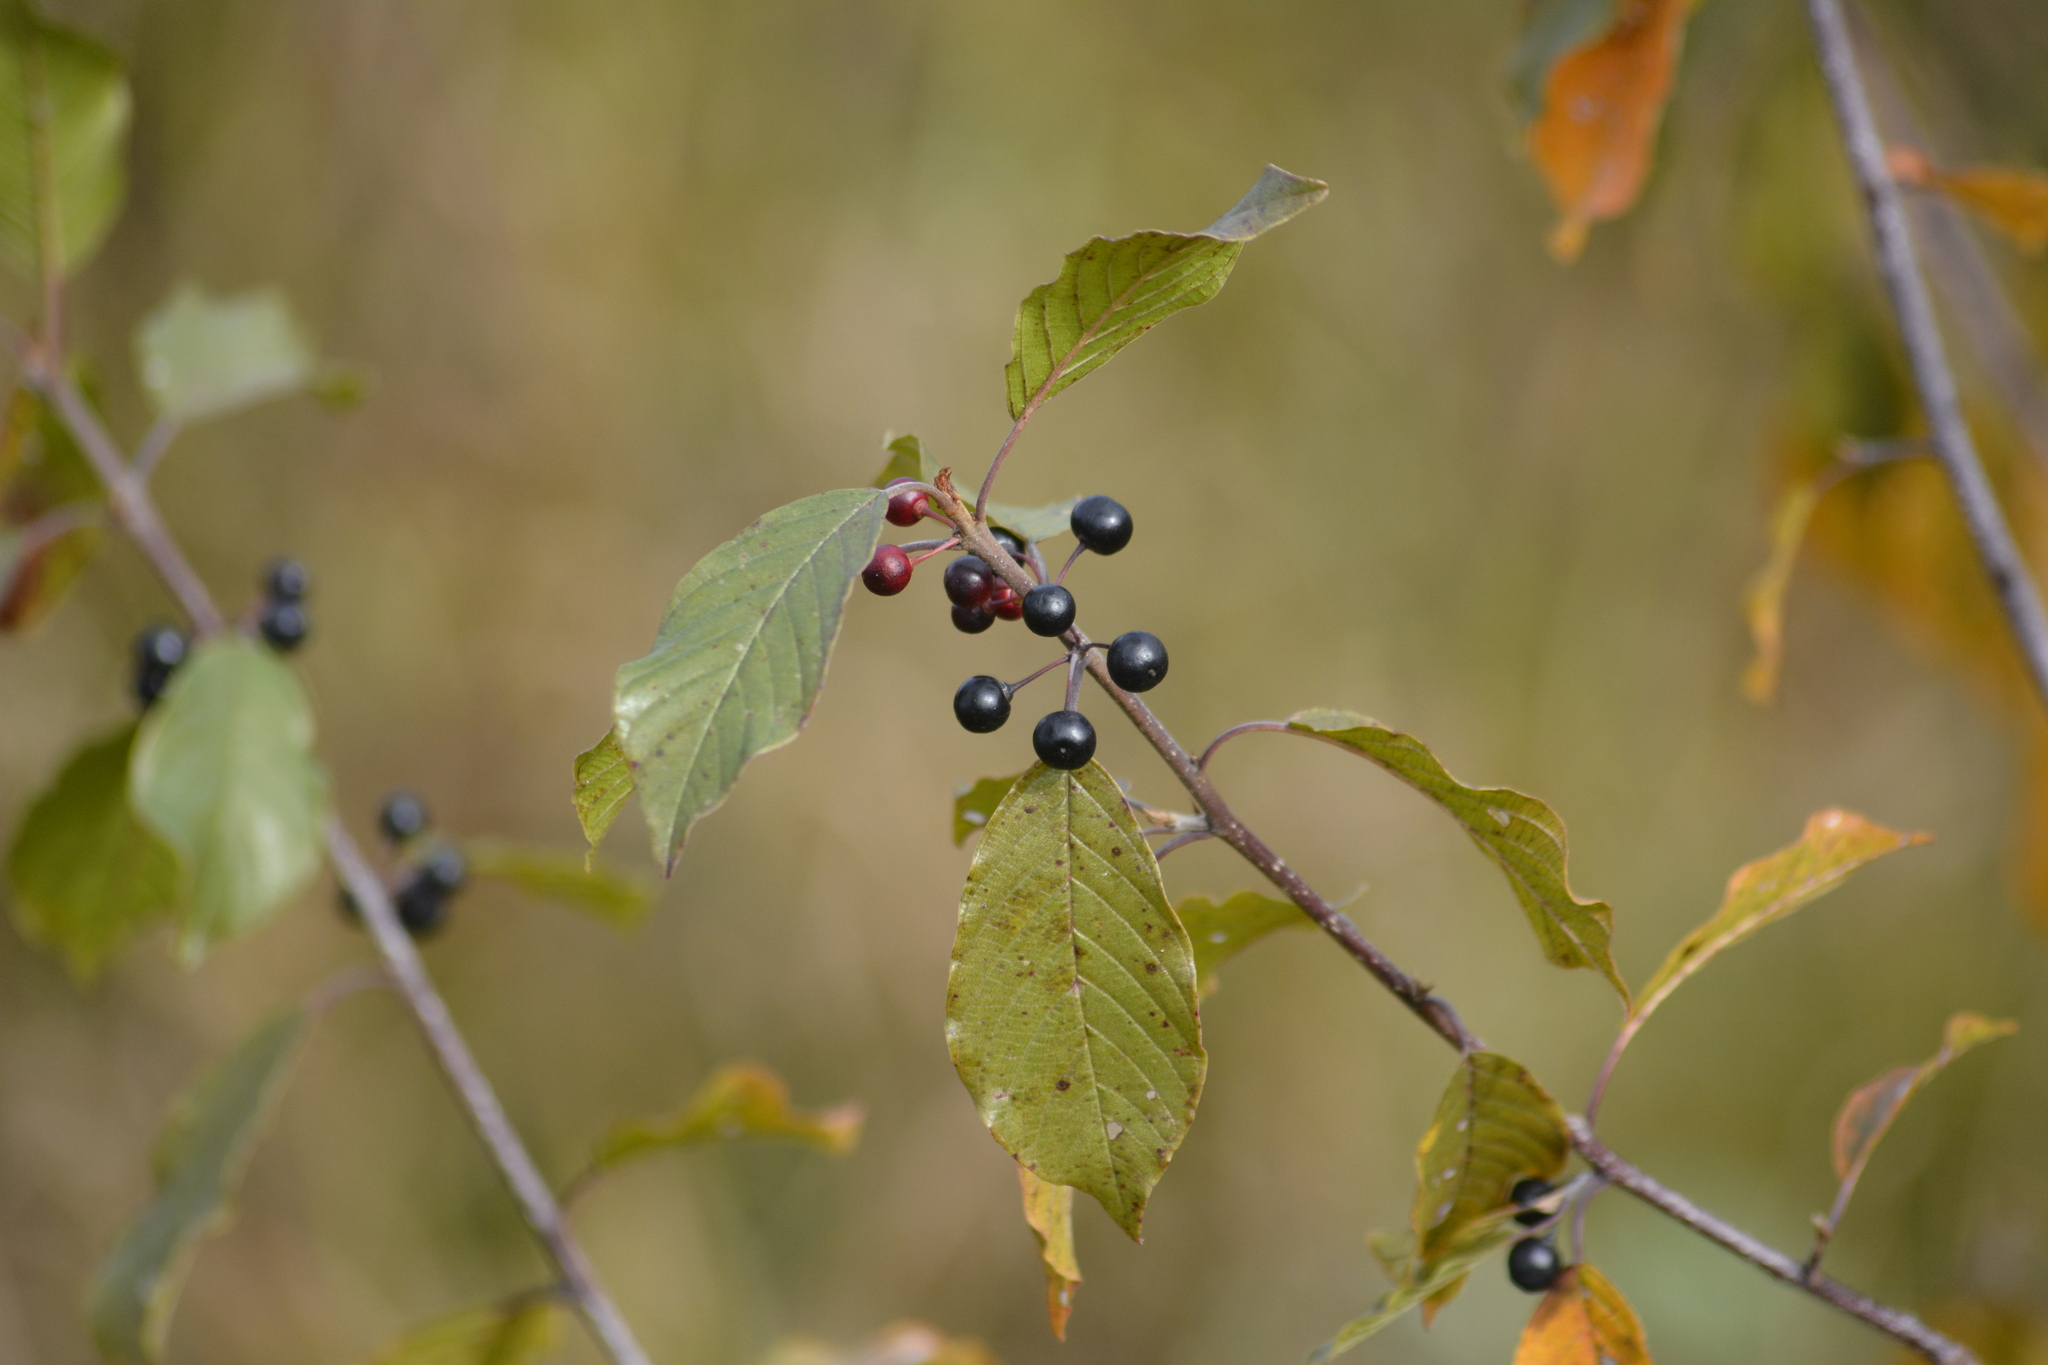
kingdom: Plantae
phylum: Tracheophyta
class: Magnoliopsida
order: Rosales
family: Rhamnaceae
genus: Frangula
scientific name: Frangula alnus
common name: Alder buckthorn
